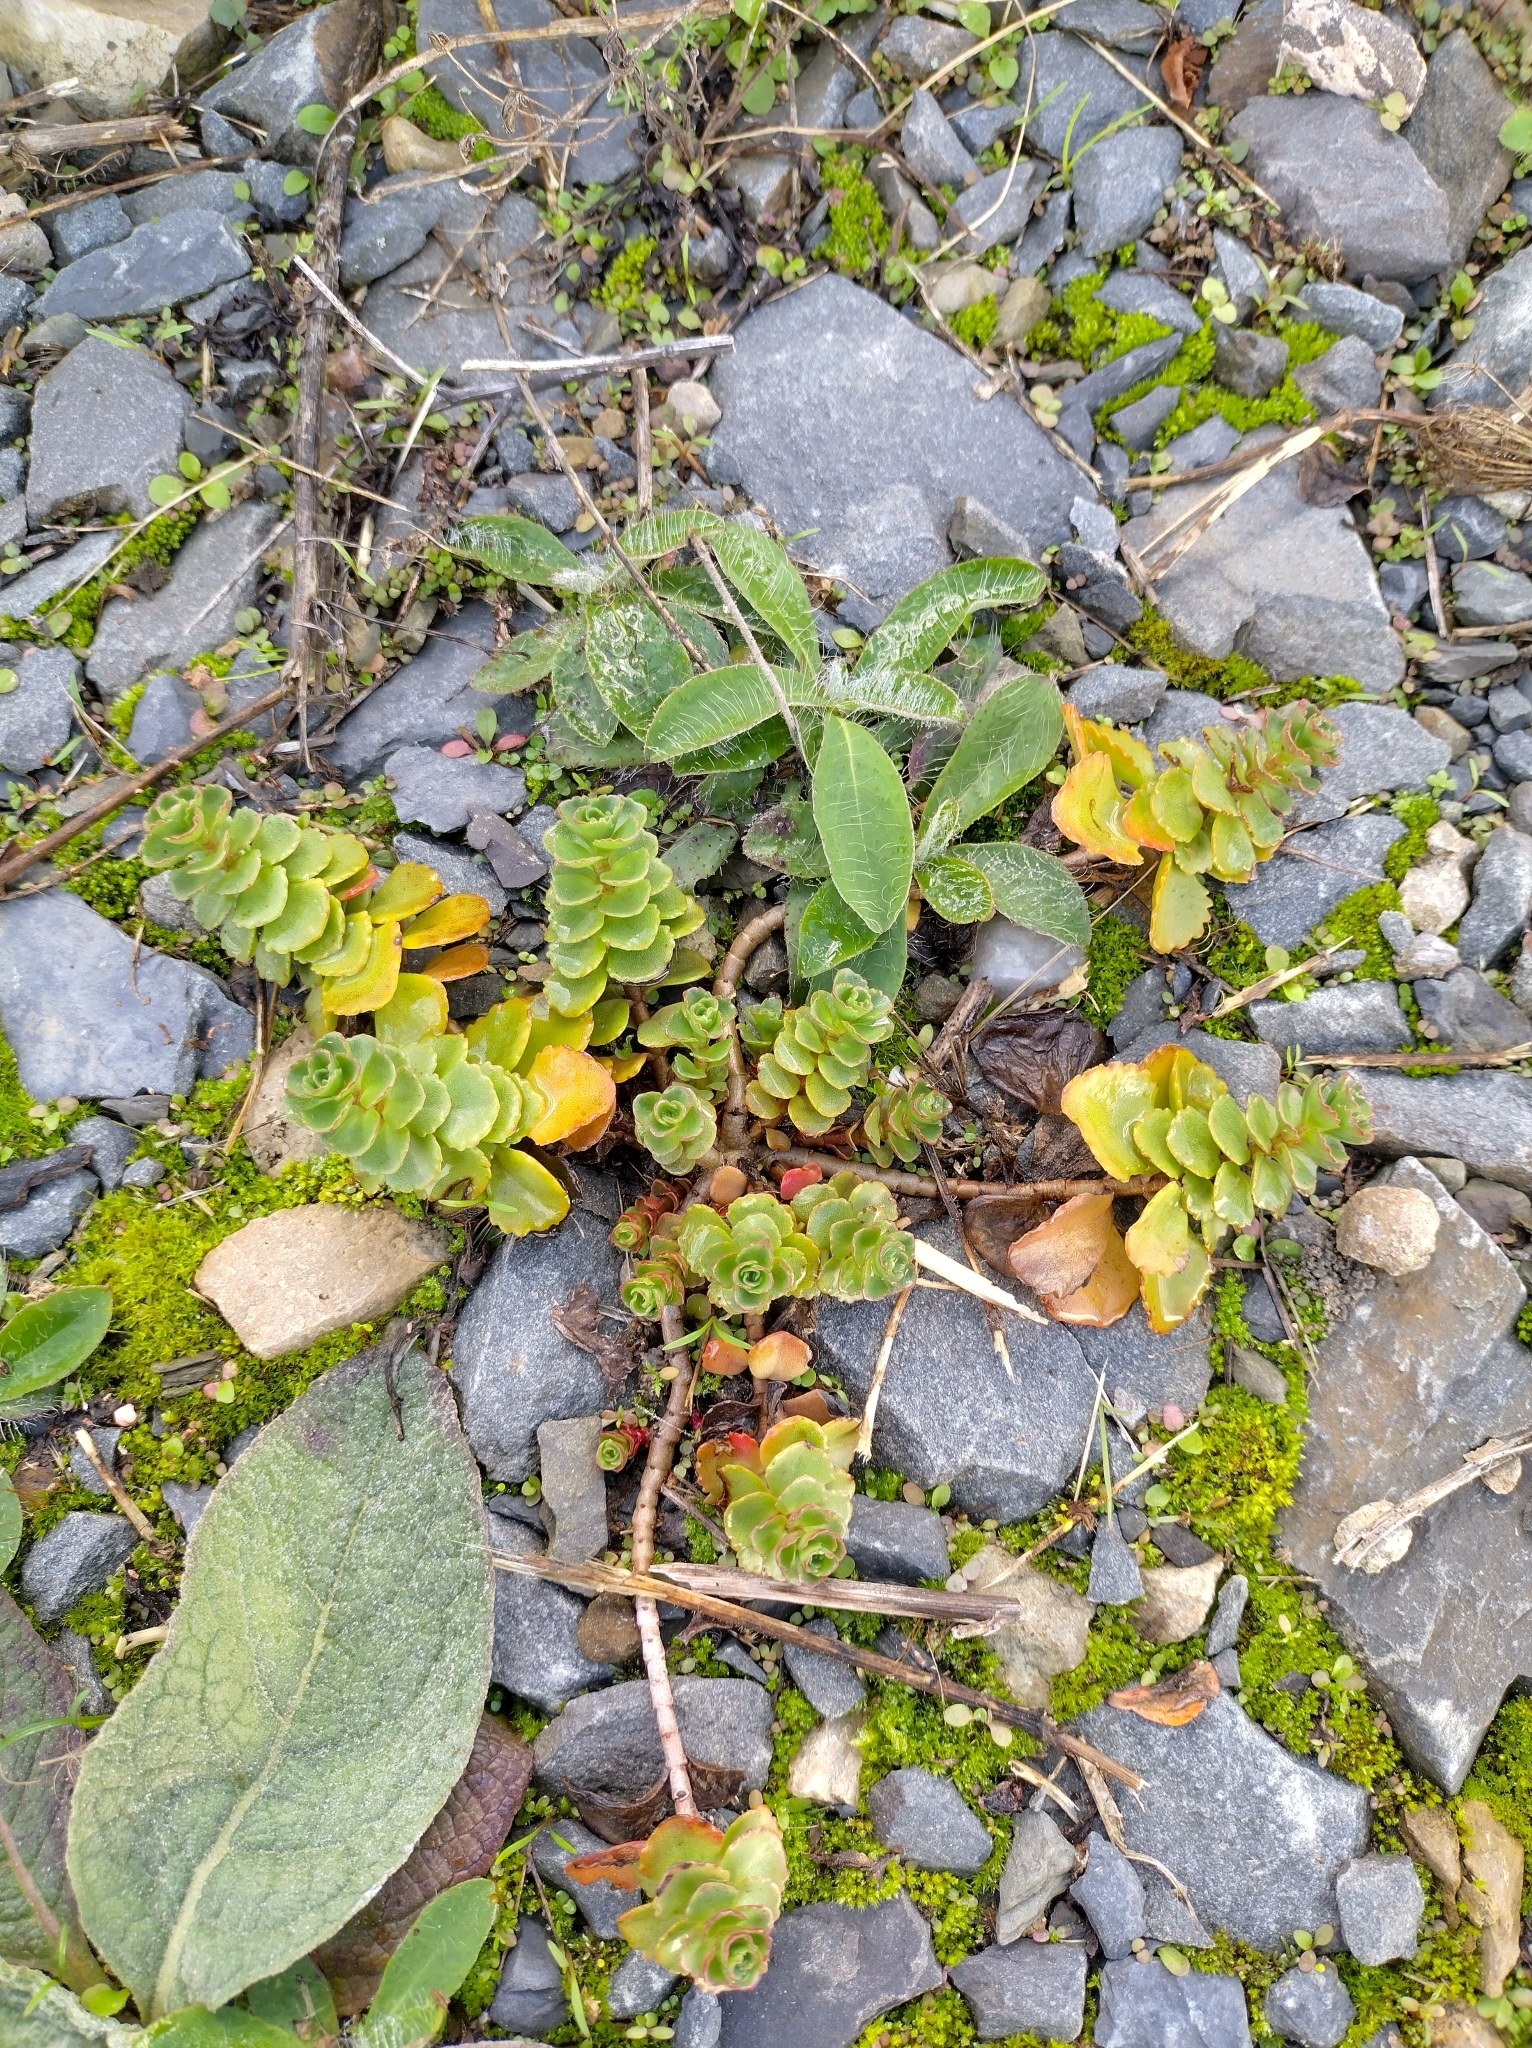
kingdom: Plantae
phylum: Tracheophyta
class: Magnoliopsida
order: Saxifragales
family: Crassulaceae
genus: Phedimus
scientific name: Phedimus spurius
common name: Caucasian stonecrop
